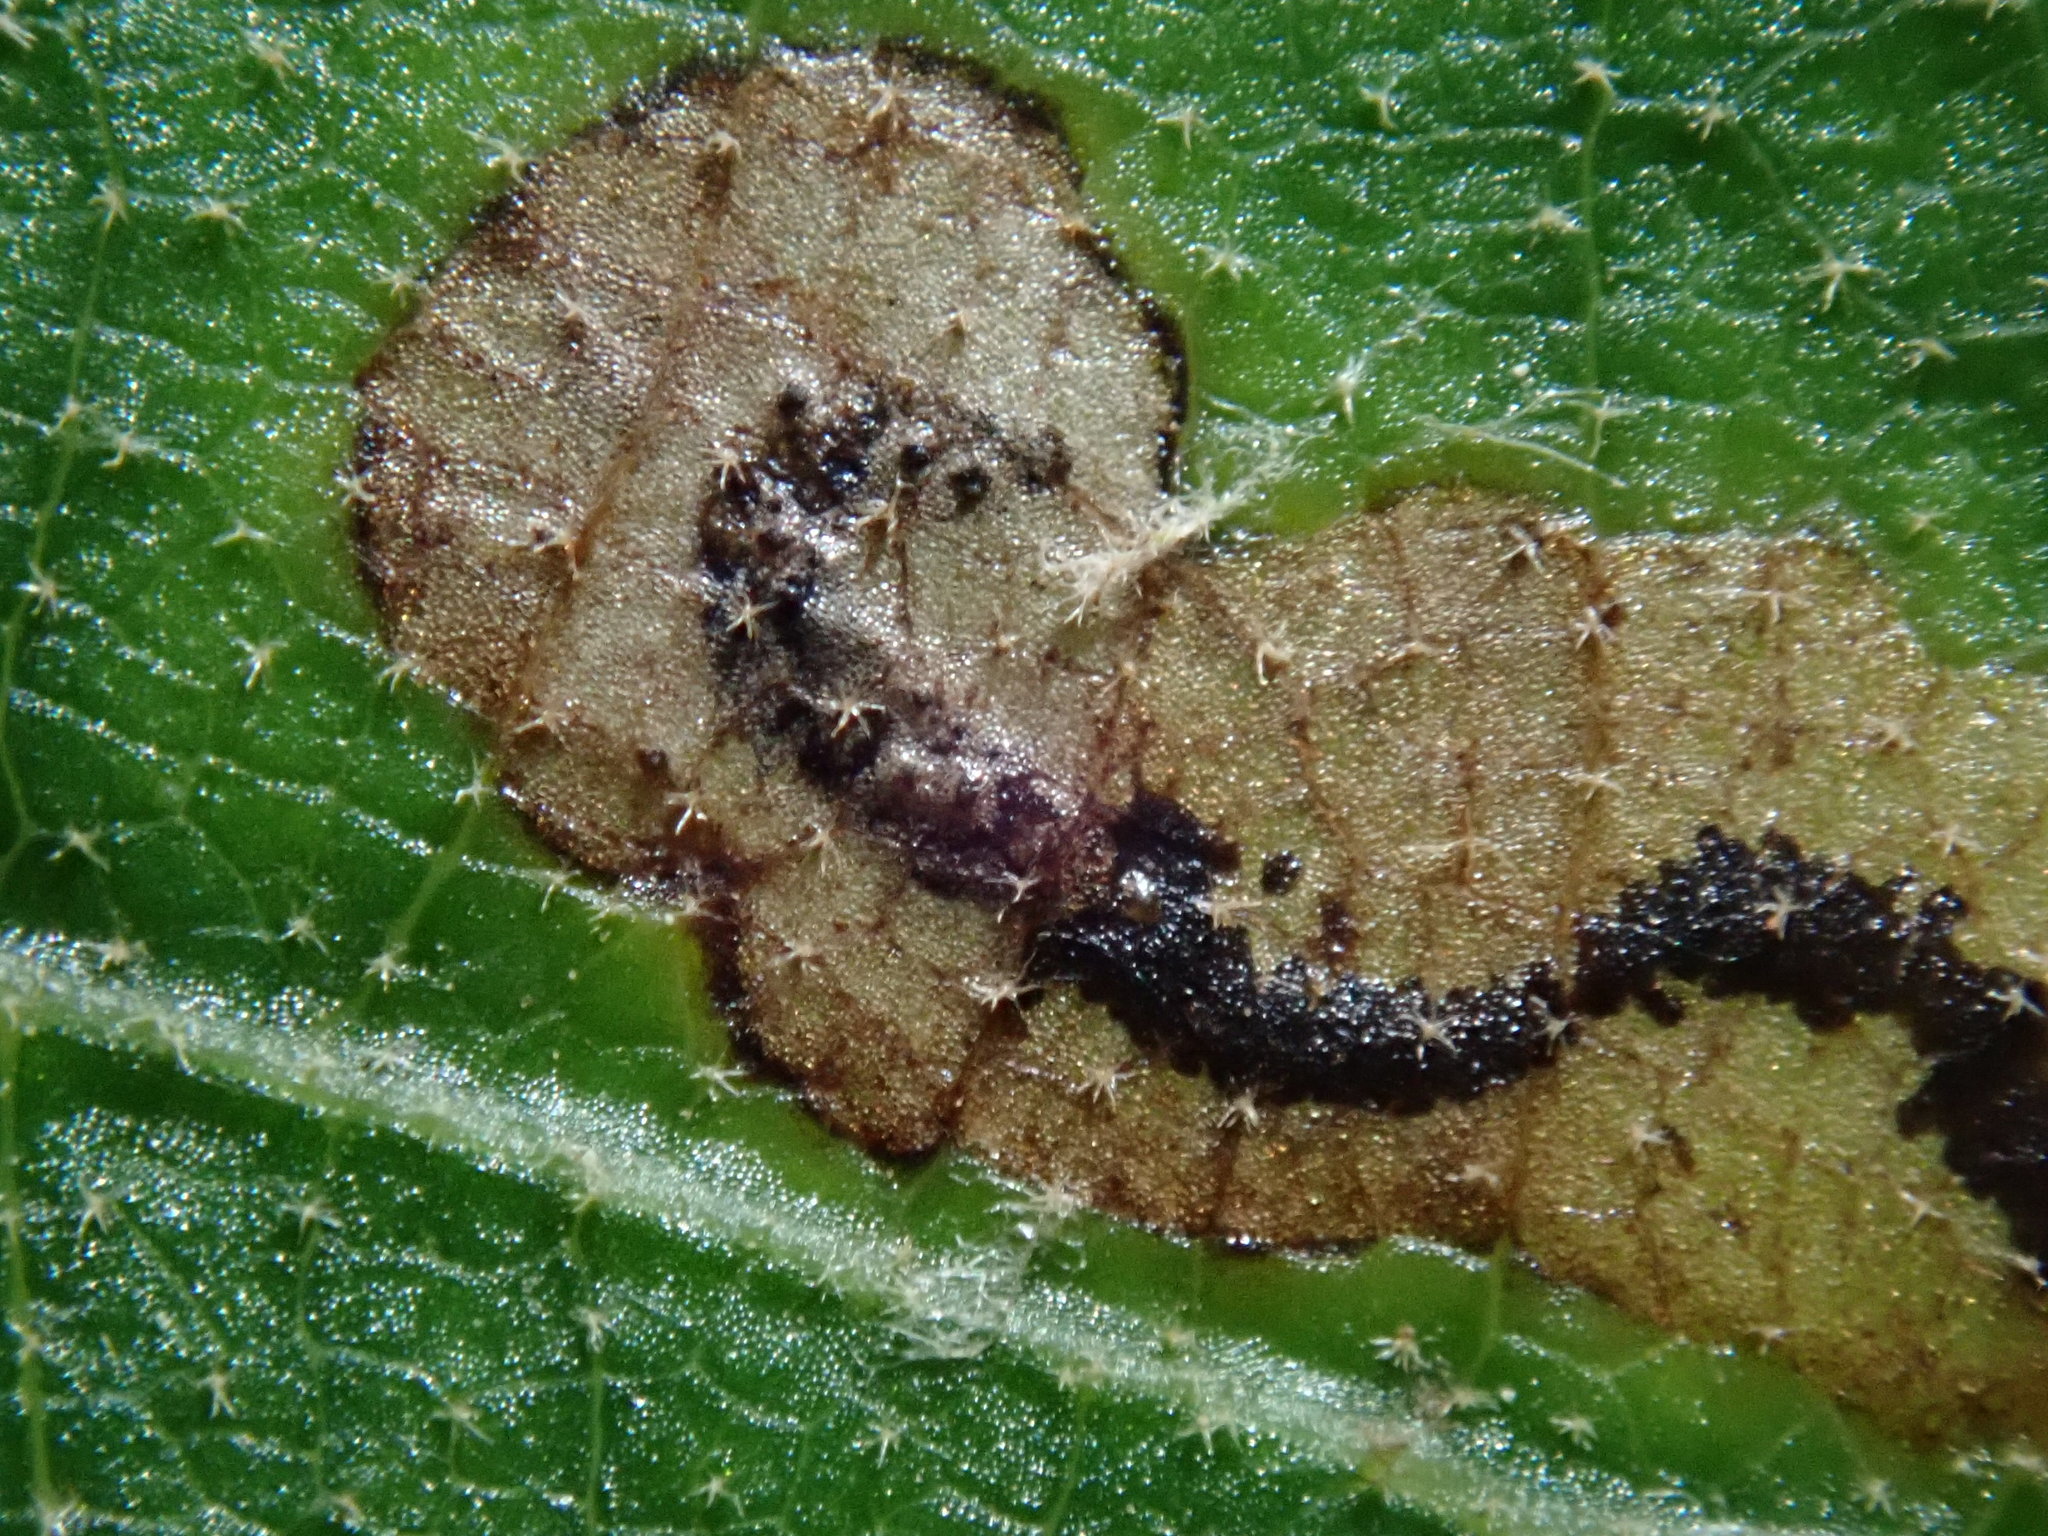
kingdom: Animalia
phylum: Arthropoda
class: Insecta
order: Lepidoptera
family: Nepticulidae
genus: Stigmella
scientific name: Stigmella quercipulchella
